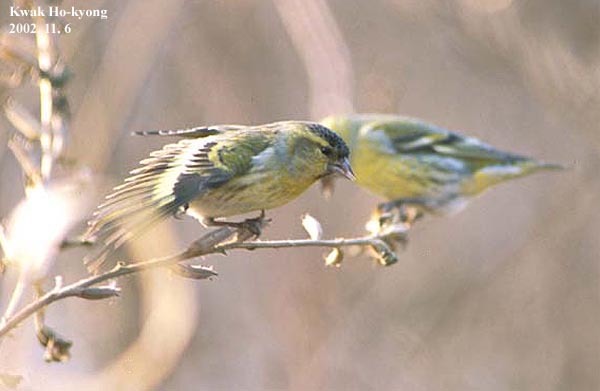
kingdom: Animalia
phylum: Chordata
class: Aves
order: Passeriformes
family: Fringillidae
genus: Spinus
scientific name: Spinus spinus
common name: Eurasian siskin
